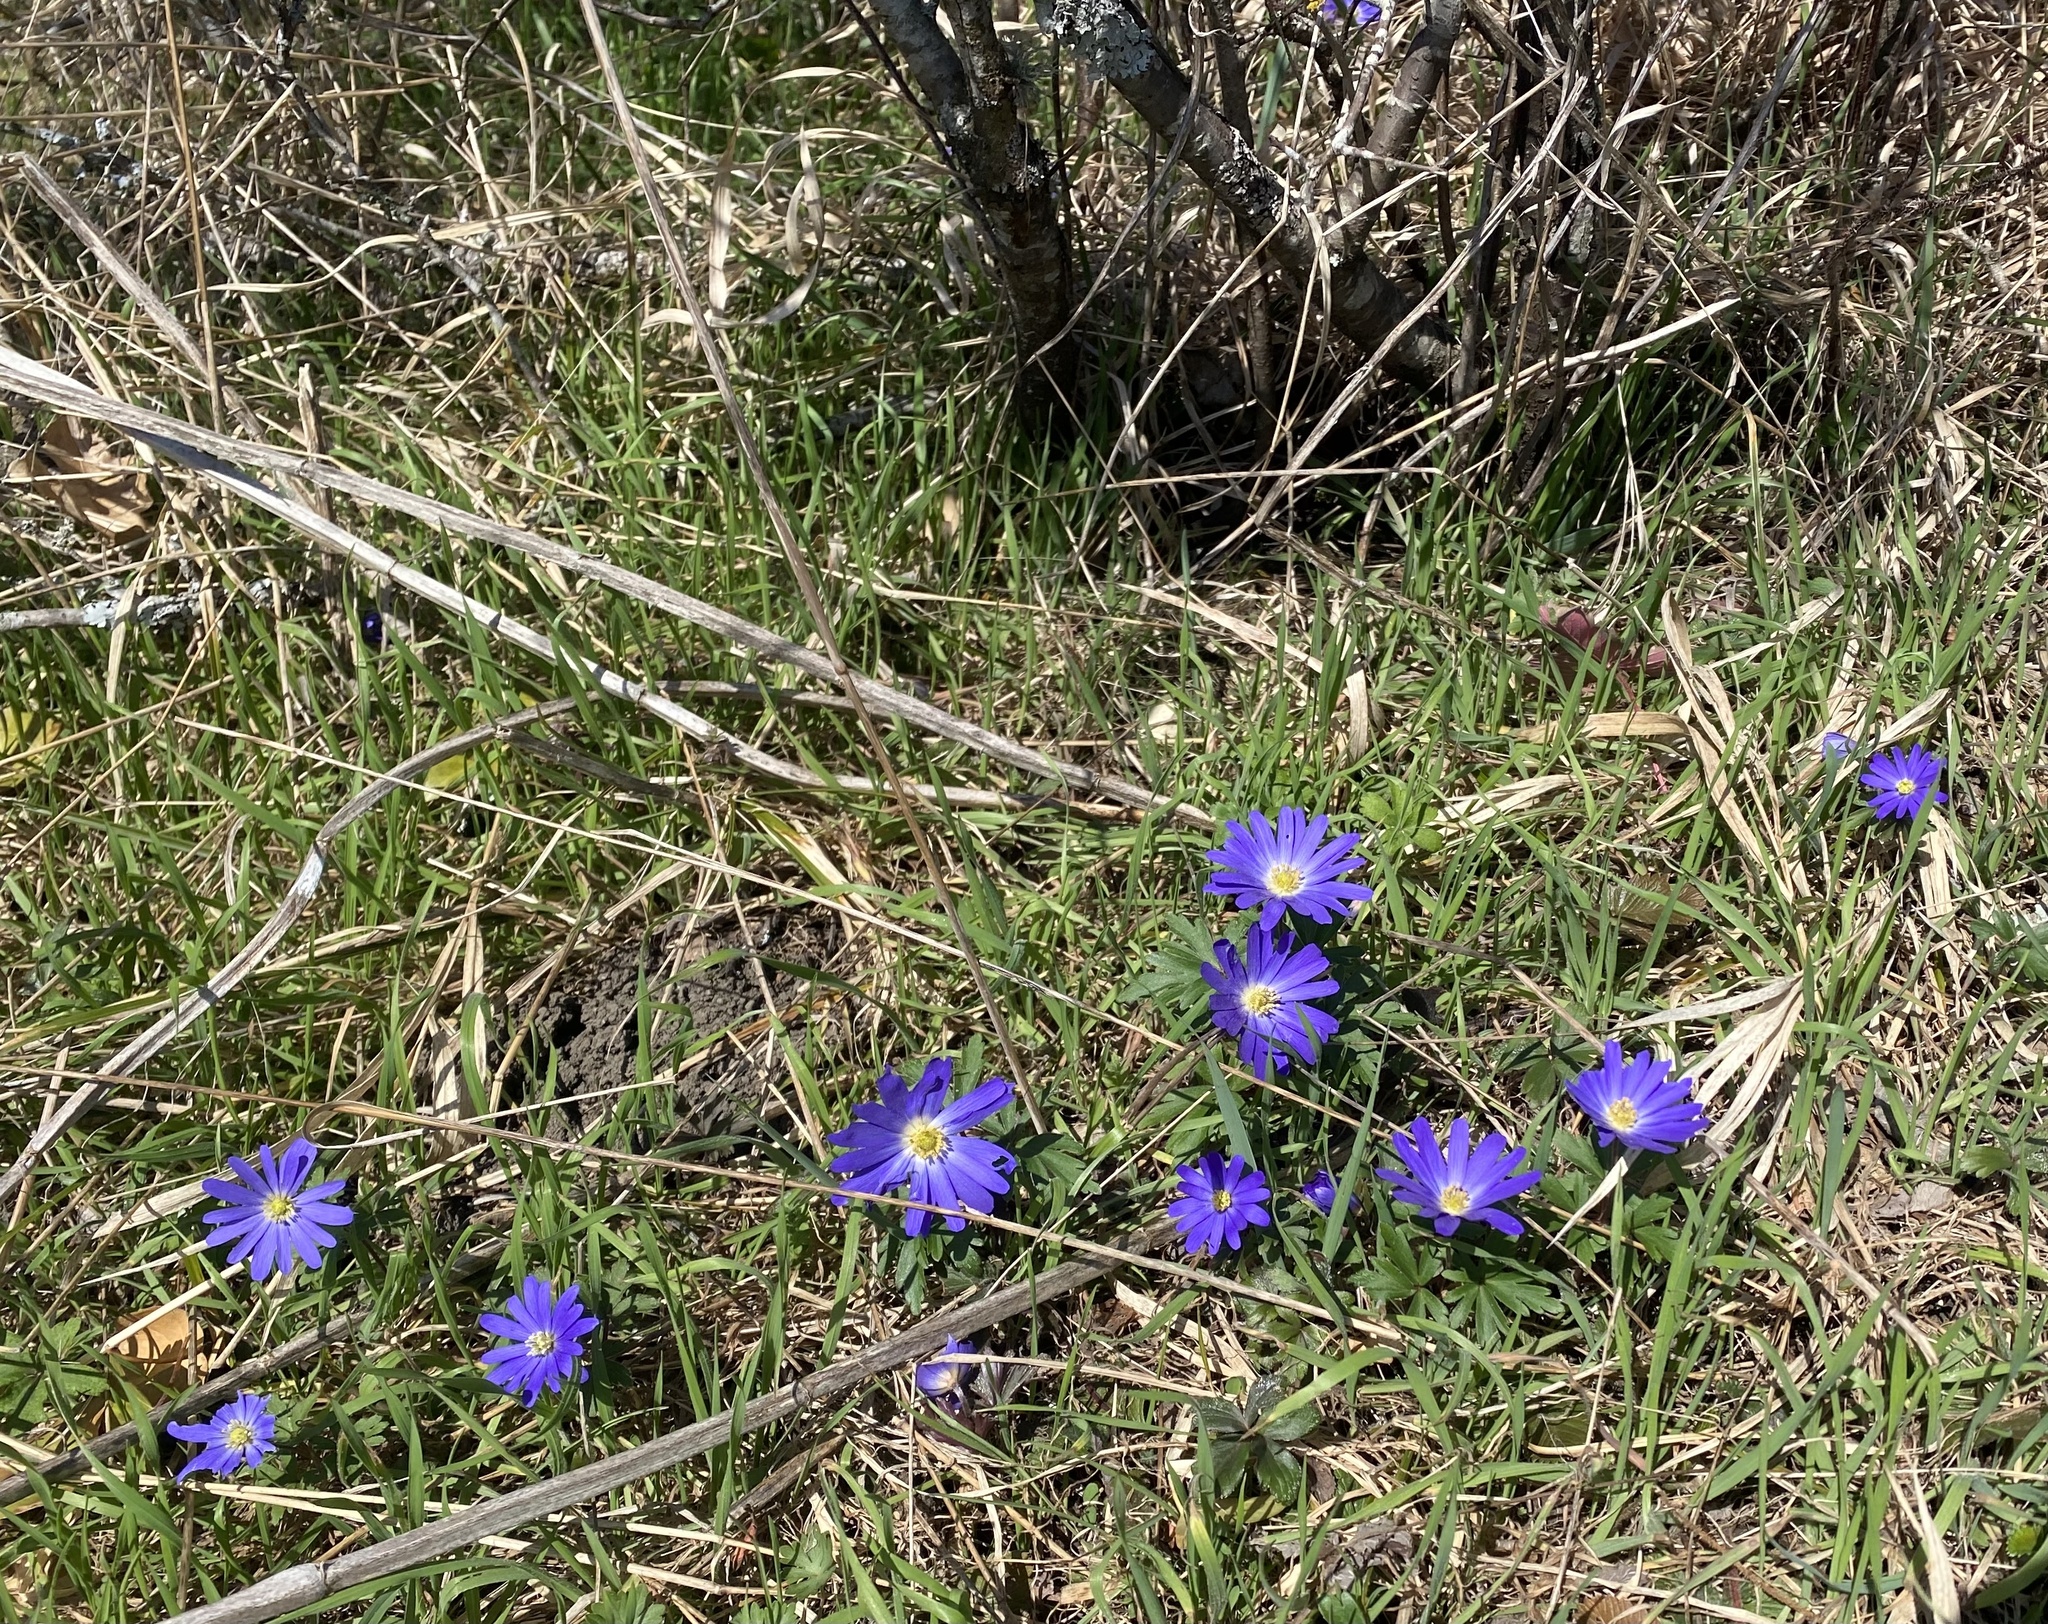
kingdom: Plantae
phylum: Tracheophyta
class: Magnoliopsida
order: Ranunculales
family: Ranunculaceae
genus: Anemone
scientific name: Anemone blanda
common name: Balkan anemone
